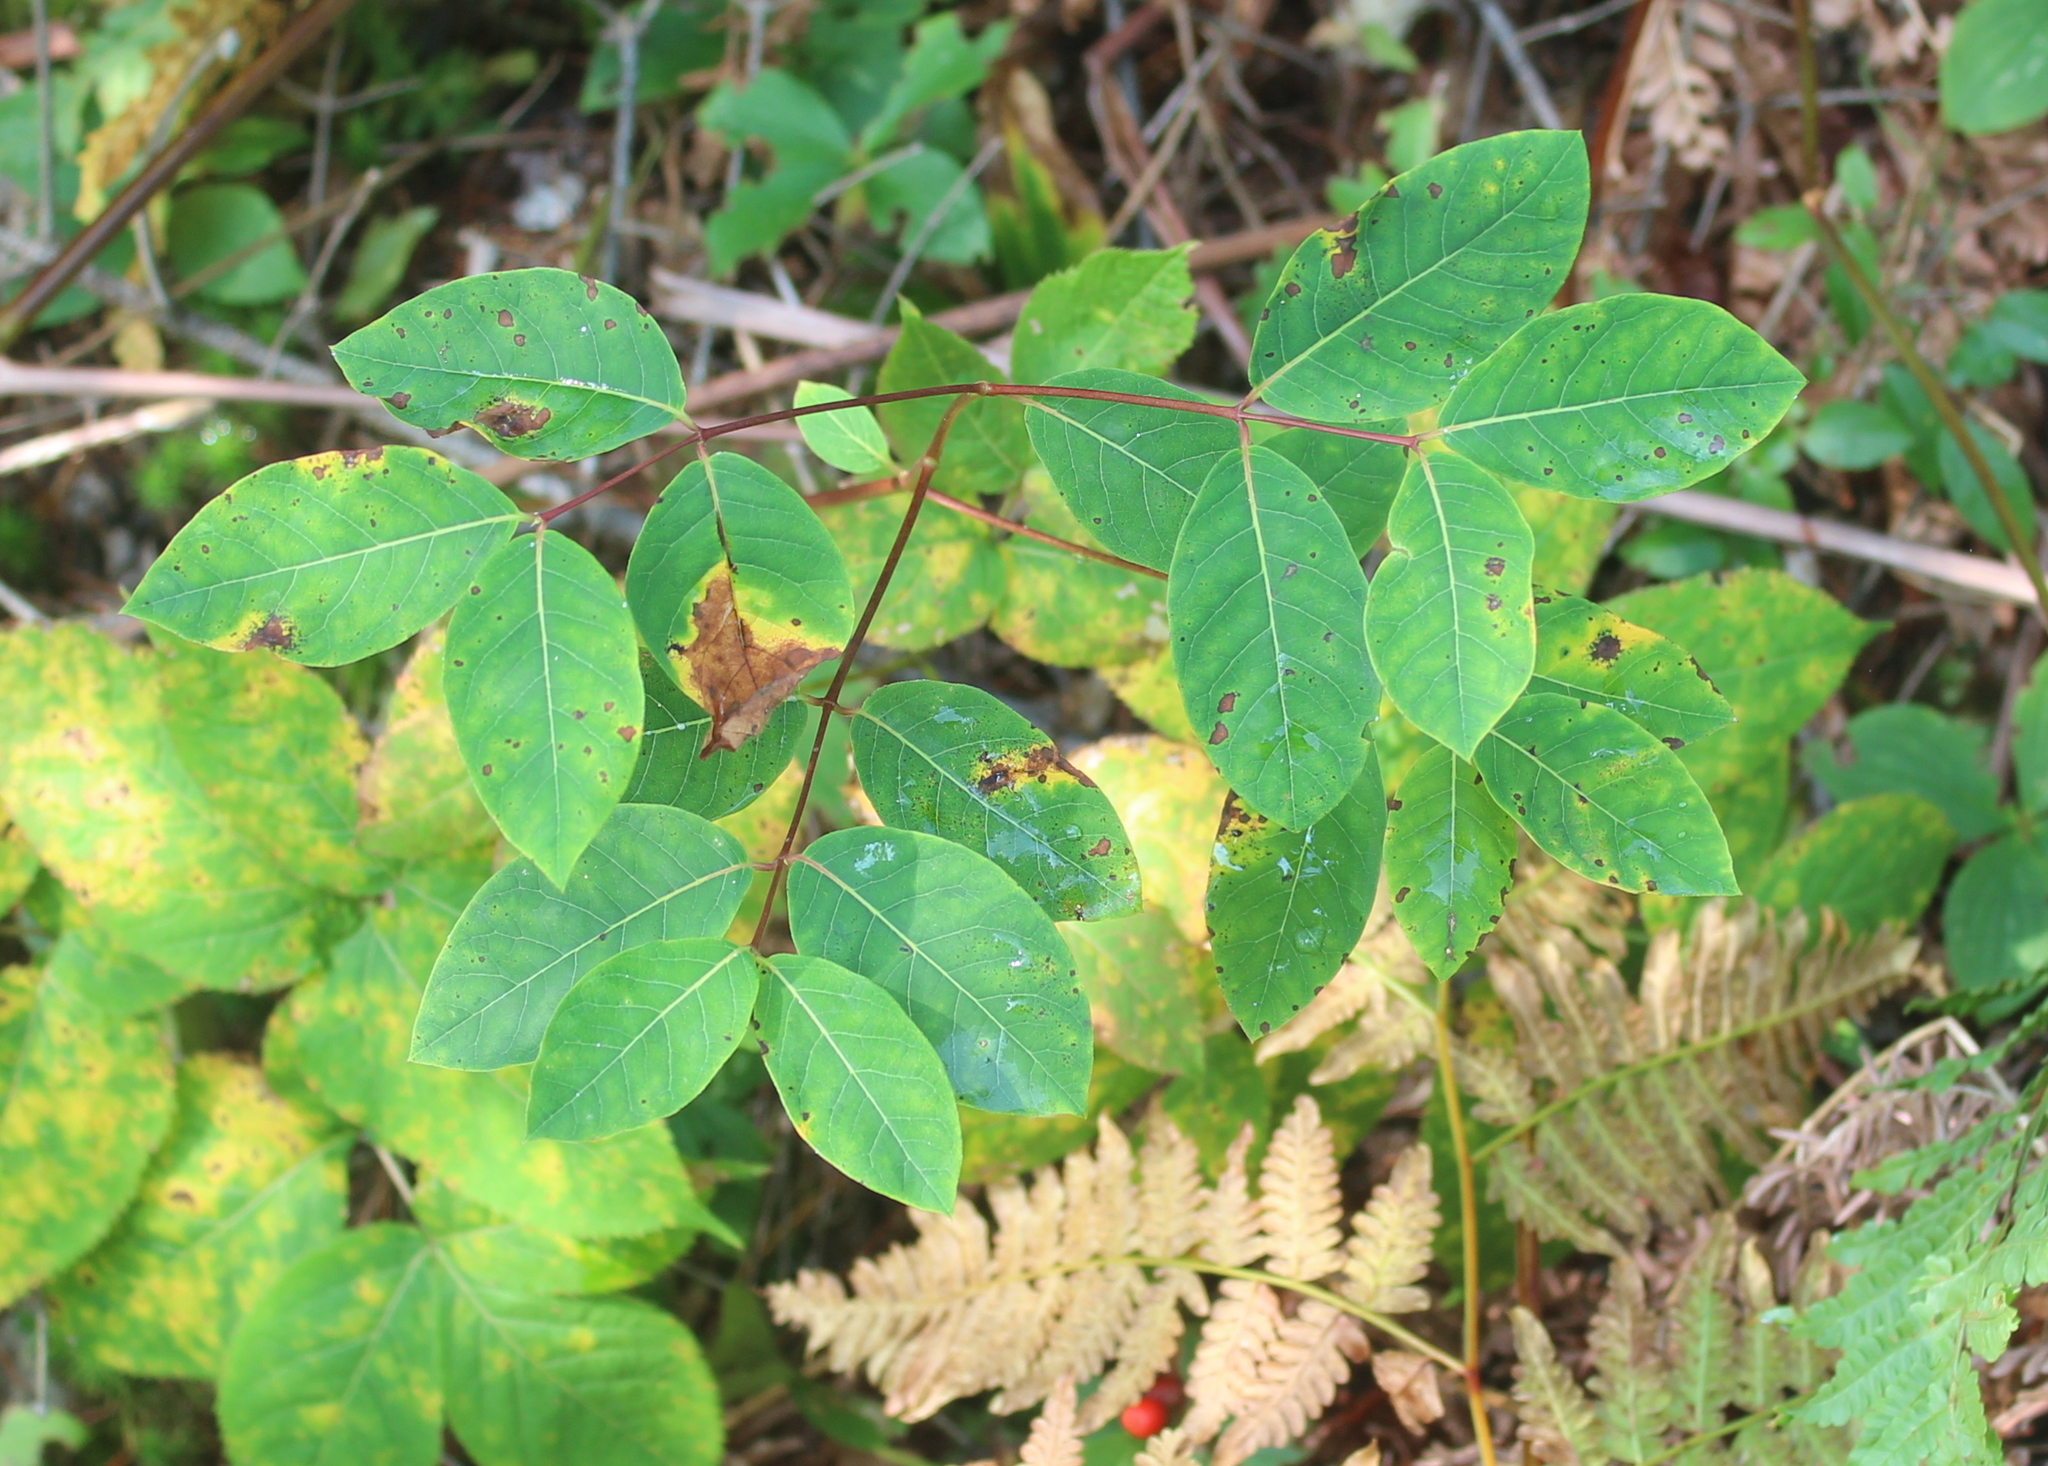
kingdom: Plantae
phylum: Tracheophyta
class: Magnoliopsida
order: Gentianales
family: Apocynaceae
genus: Apocynum
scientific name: Apocynum androsaemifolium
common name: Spreading dogbane
